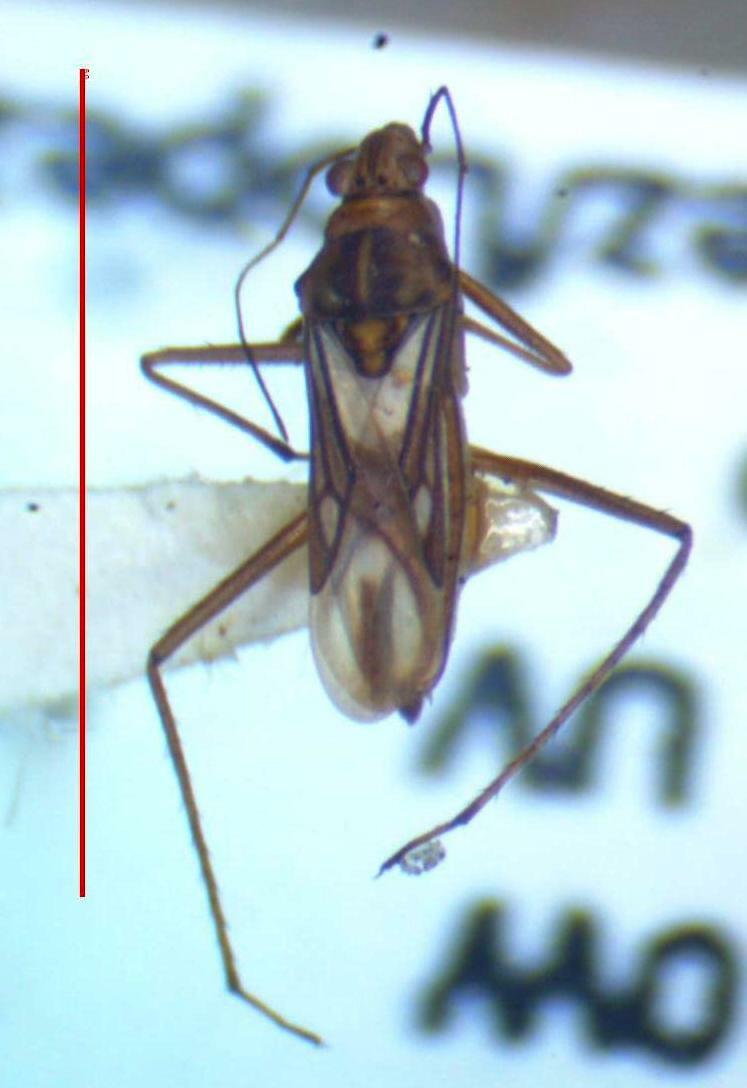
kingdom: Animalia
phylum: Arthropoda
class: Insecta
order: Hemiptera
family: Mesoveliidae
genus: Mesovelia
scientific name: Mesovelia mulsanti
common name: Water treaders
